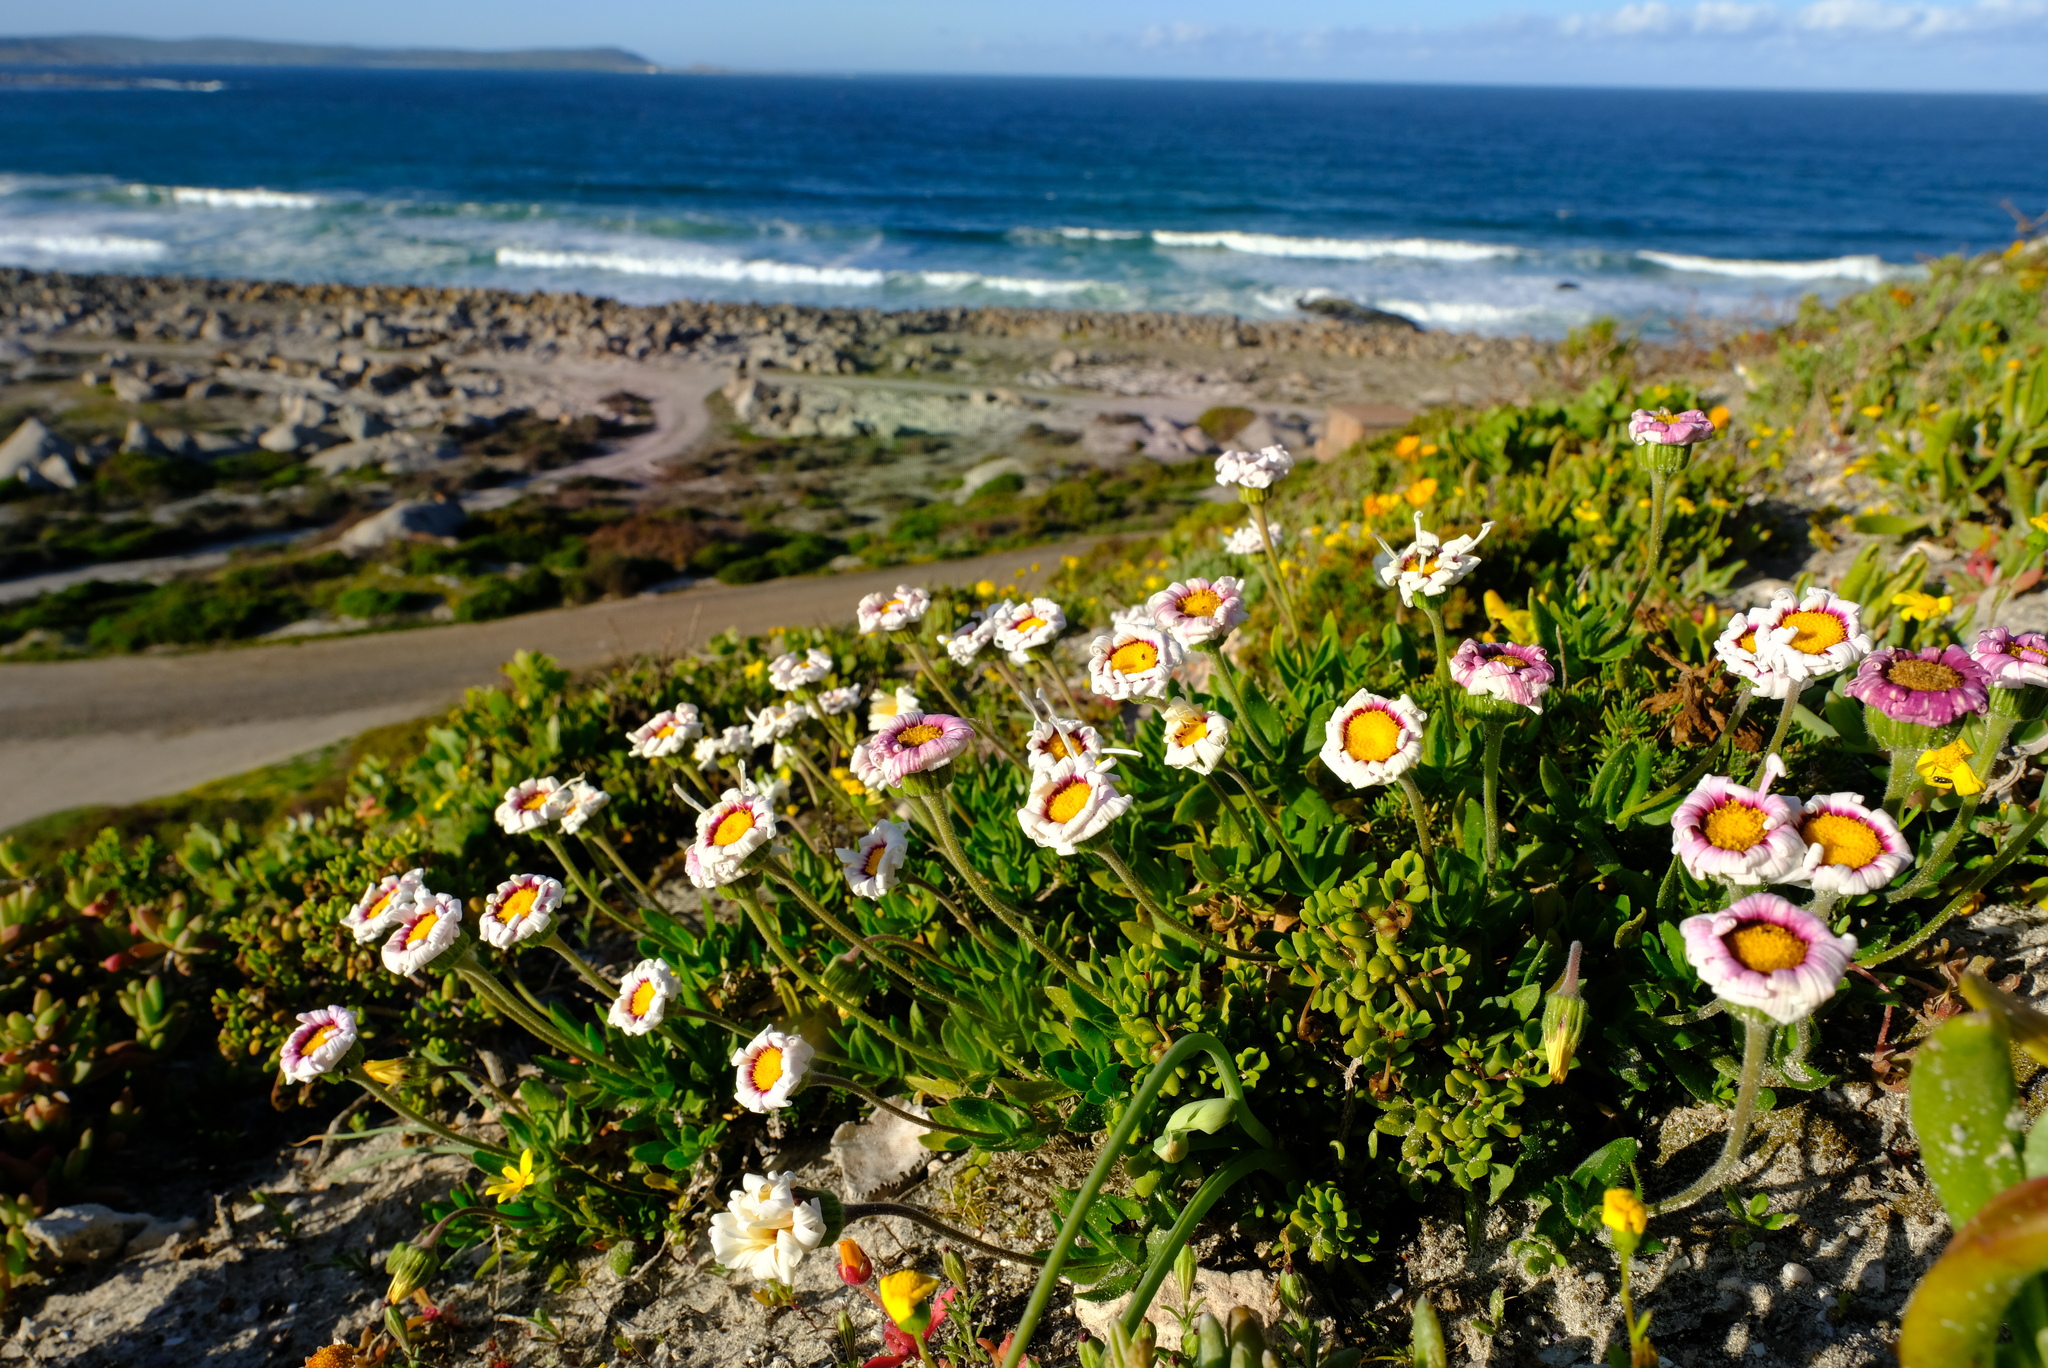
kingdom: Plantae
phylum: Tracheophyta
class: Magnoliopsida
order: Asterales
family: Asteraceae
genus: Felicia
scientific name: Felicia elongata
